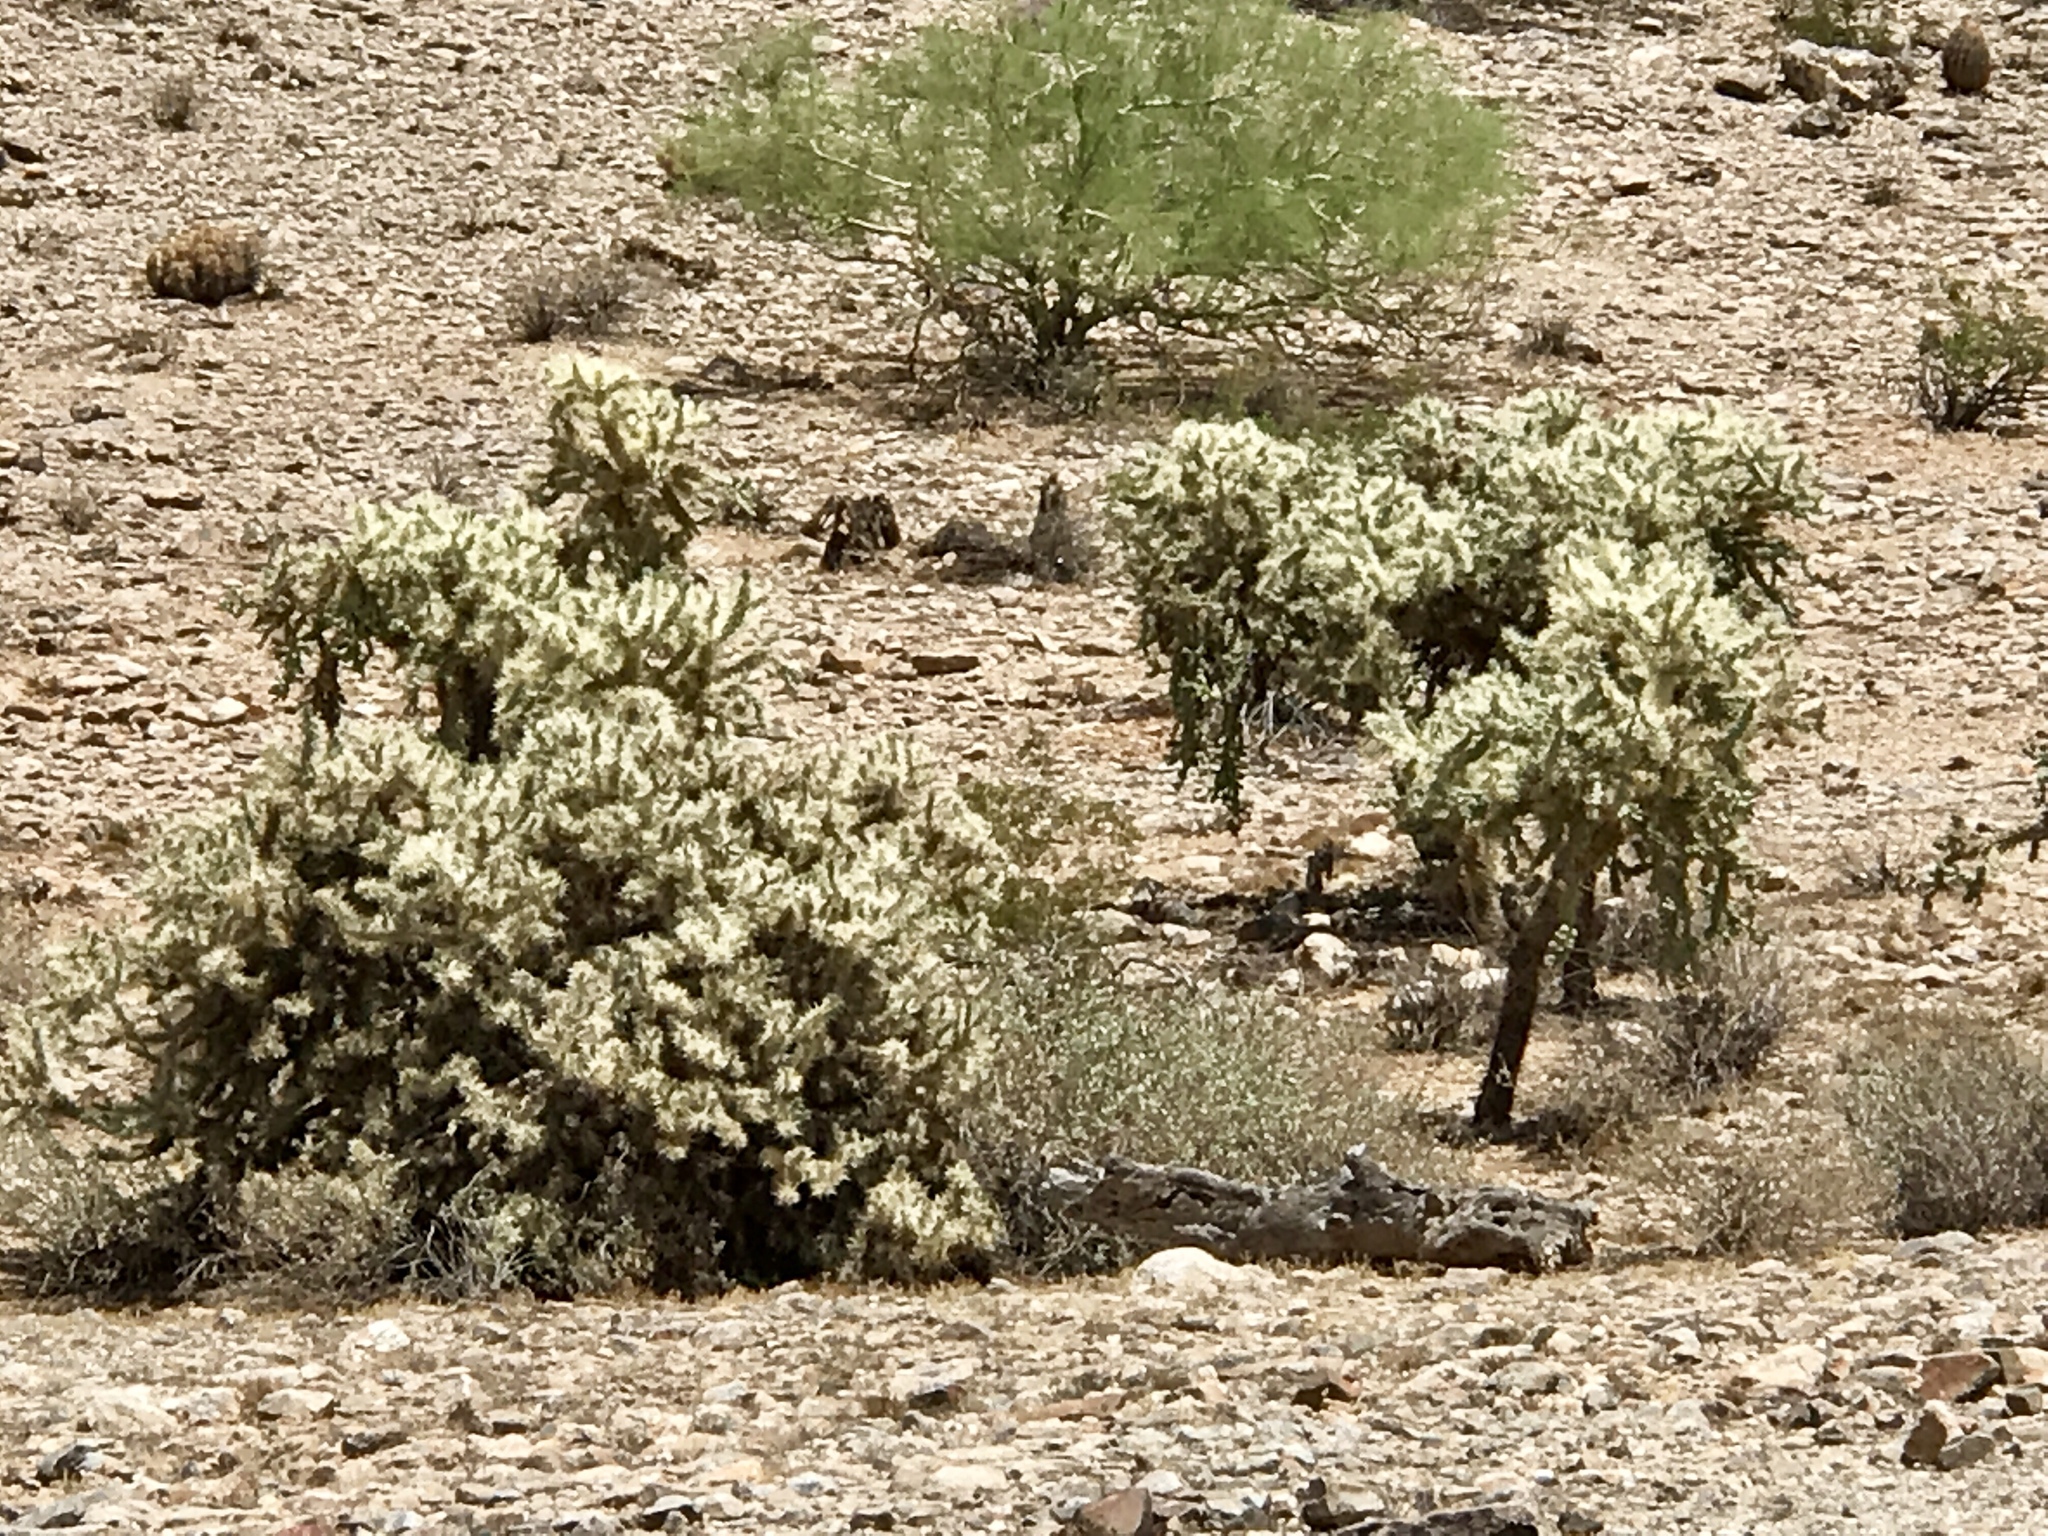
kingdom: Plantae
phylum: Tracheophyta
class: Magnoliopsida
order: Caryophyllales
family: Cactaceae
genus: Cylindropuntia
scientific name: Cylindropuntia fulgida
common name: Jumping cholla
